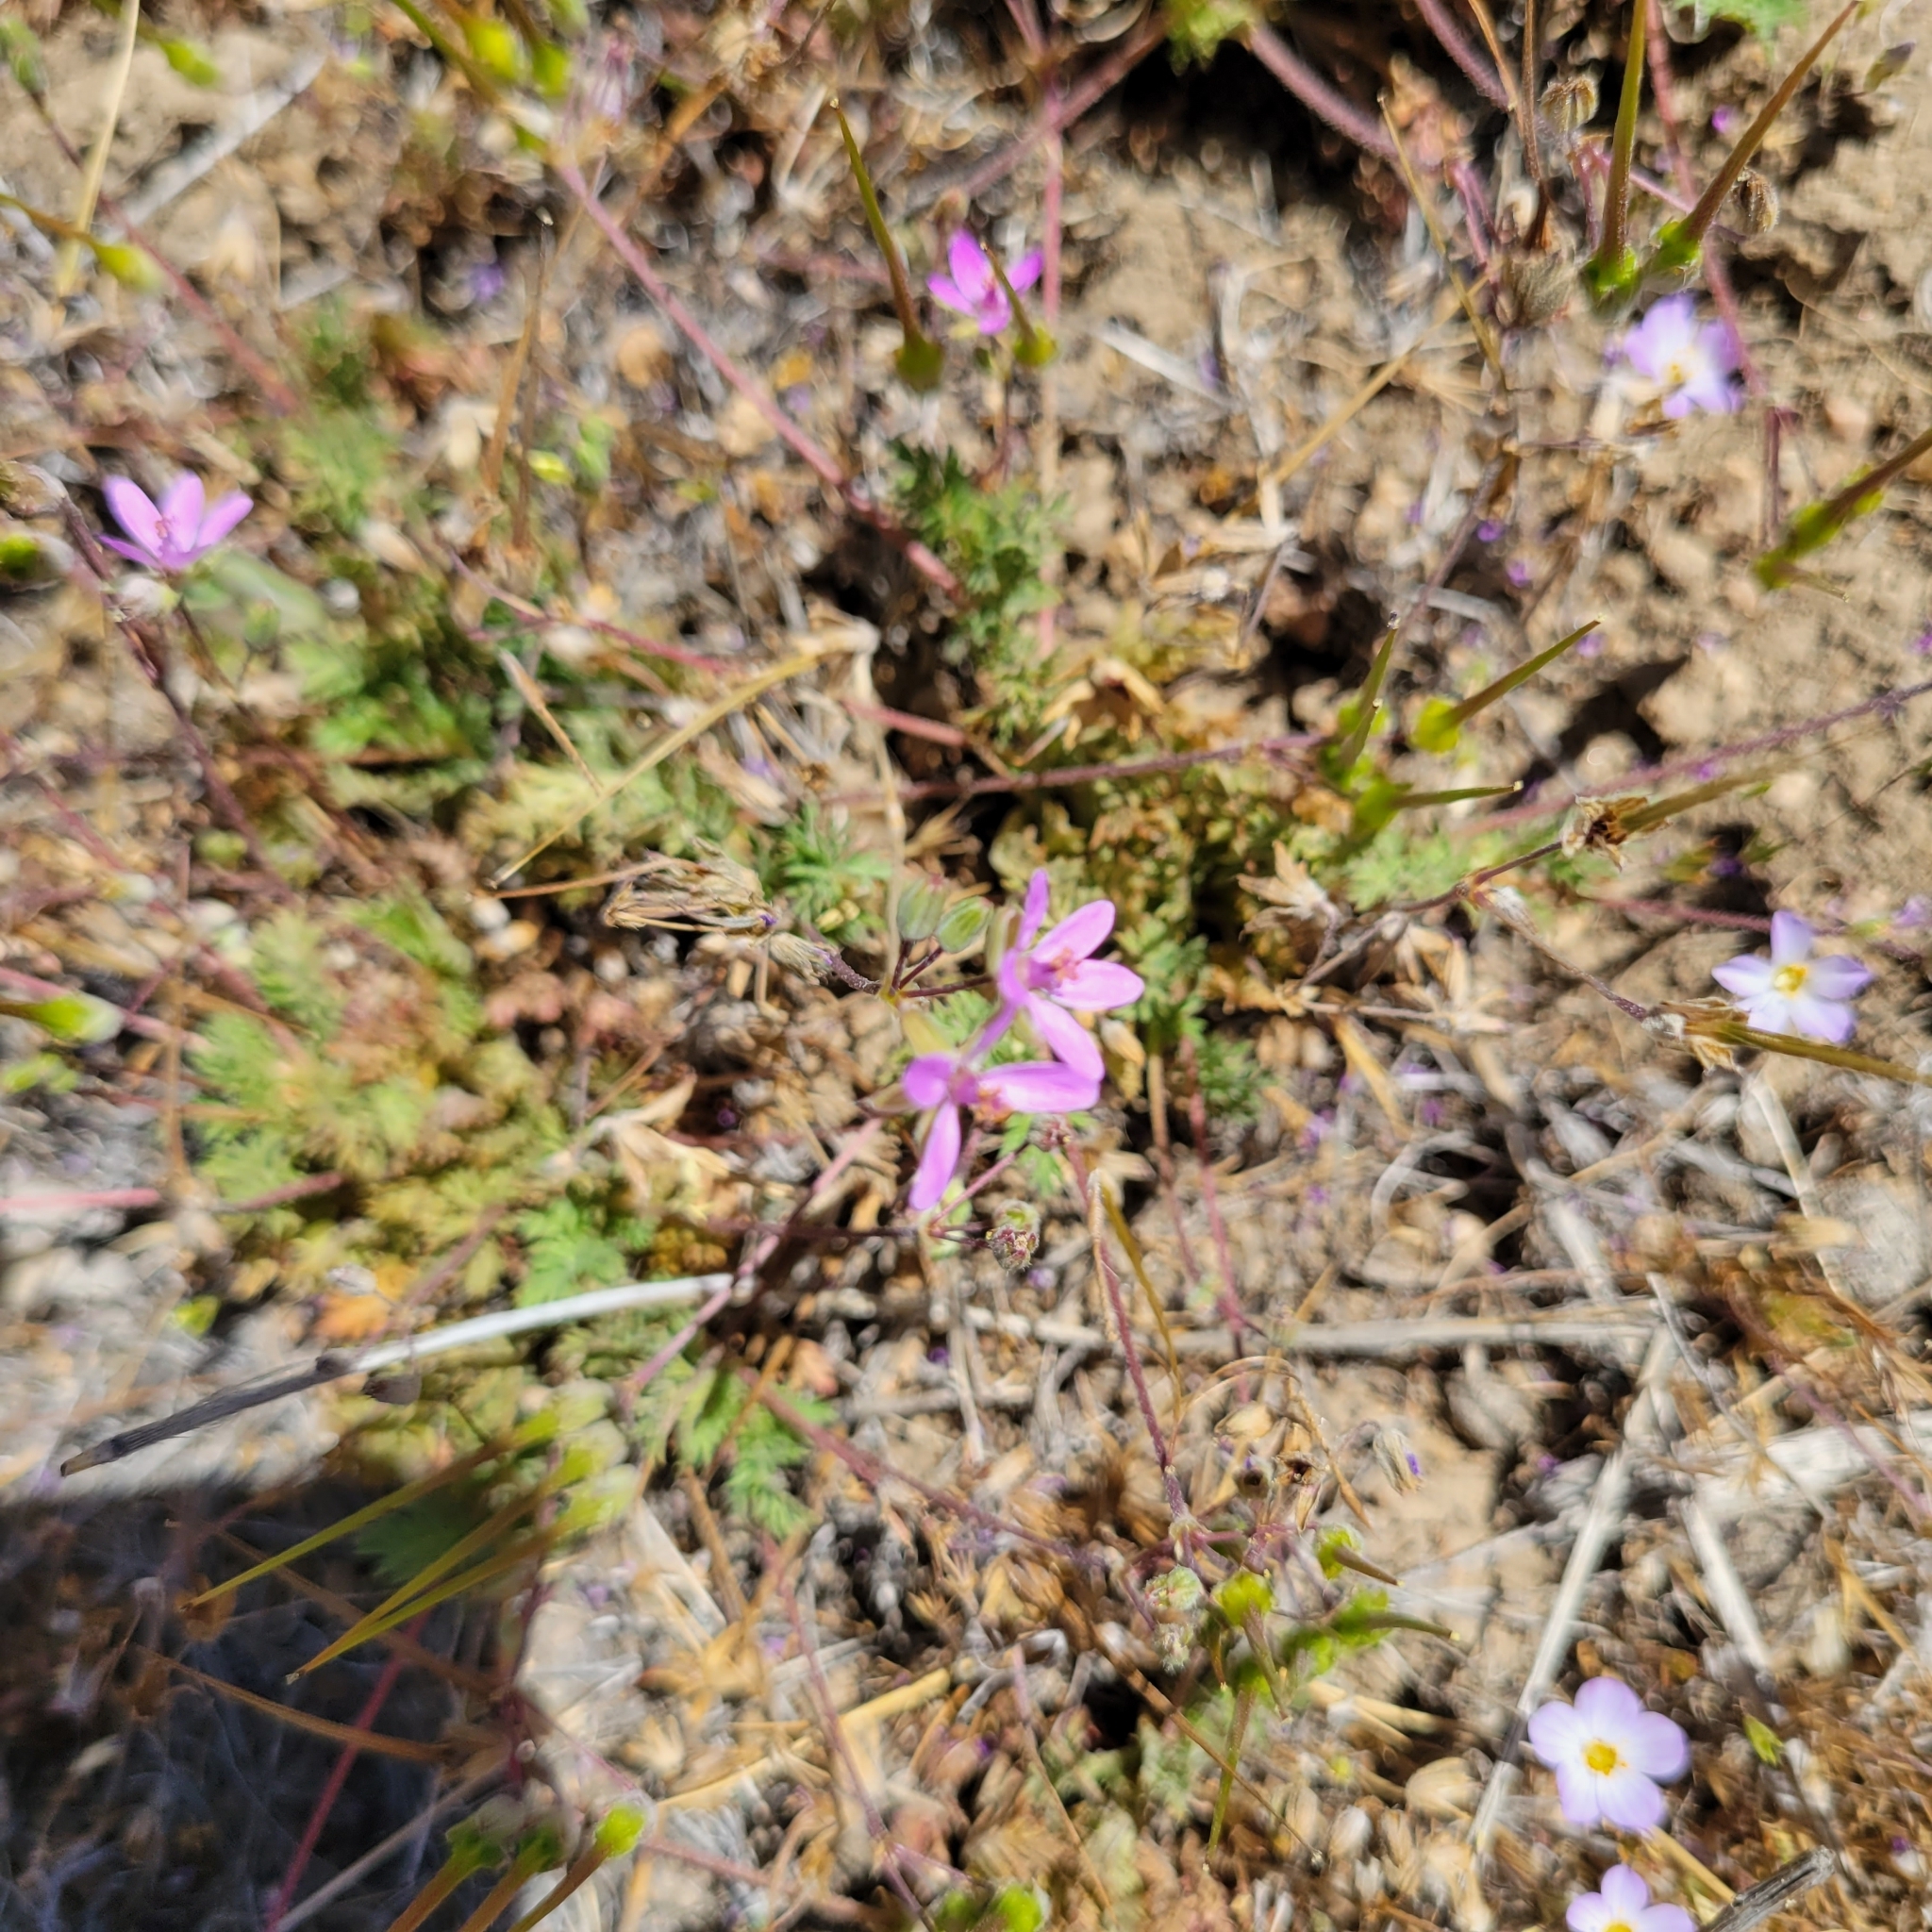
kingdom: Plantae
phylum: Tracheophyta
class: Magnoliopsida
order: Geraniales
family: Geraniaceae
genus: Erodium
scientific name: Erodium cicutarium
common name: Common stork's-bill
